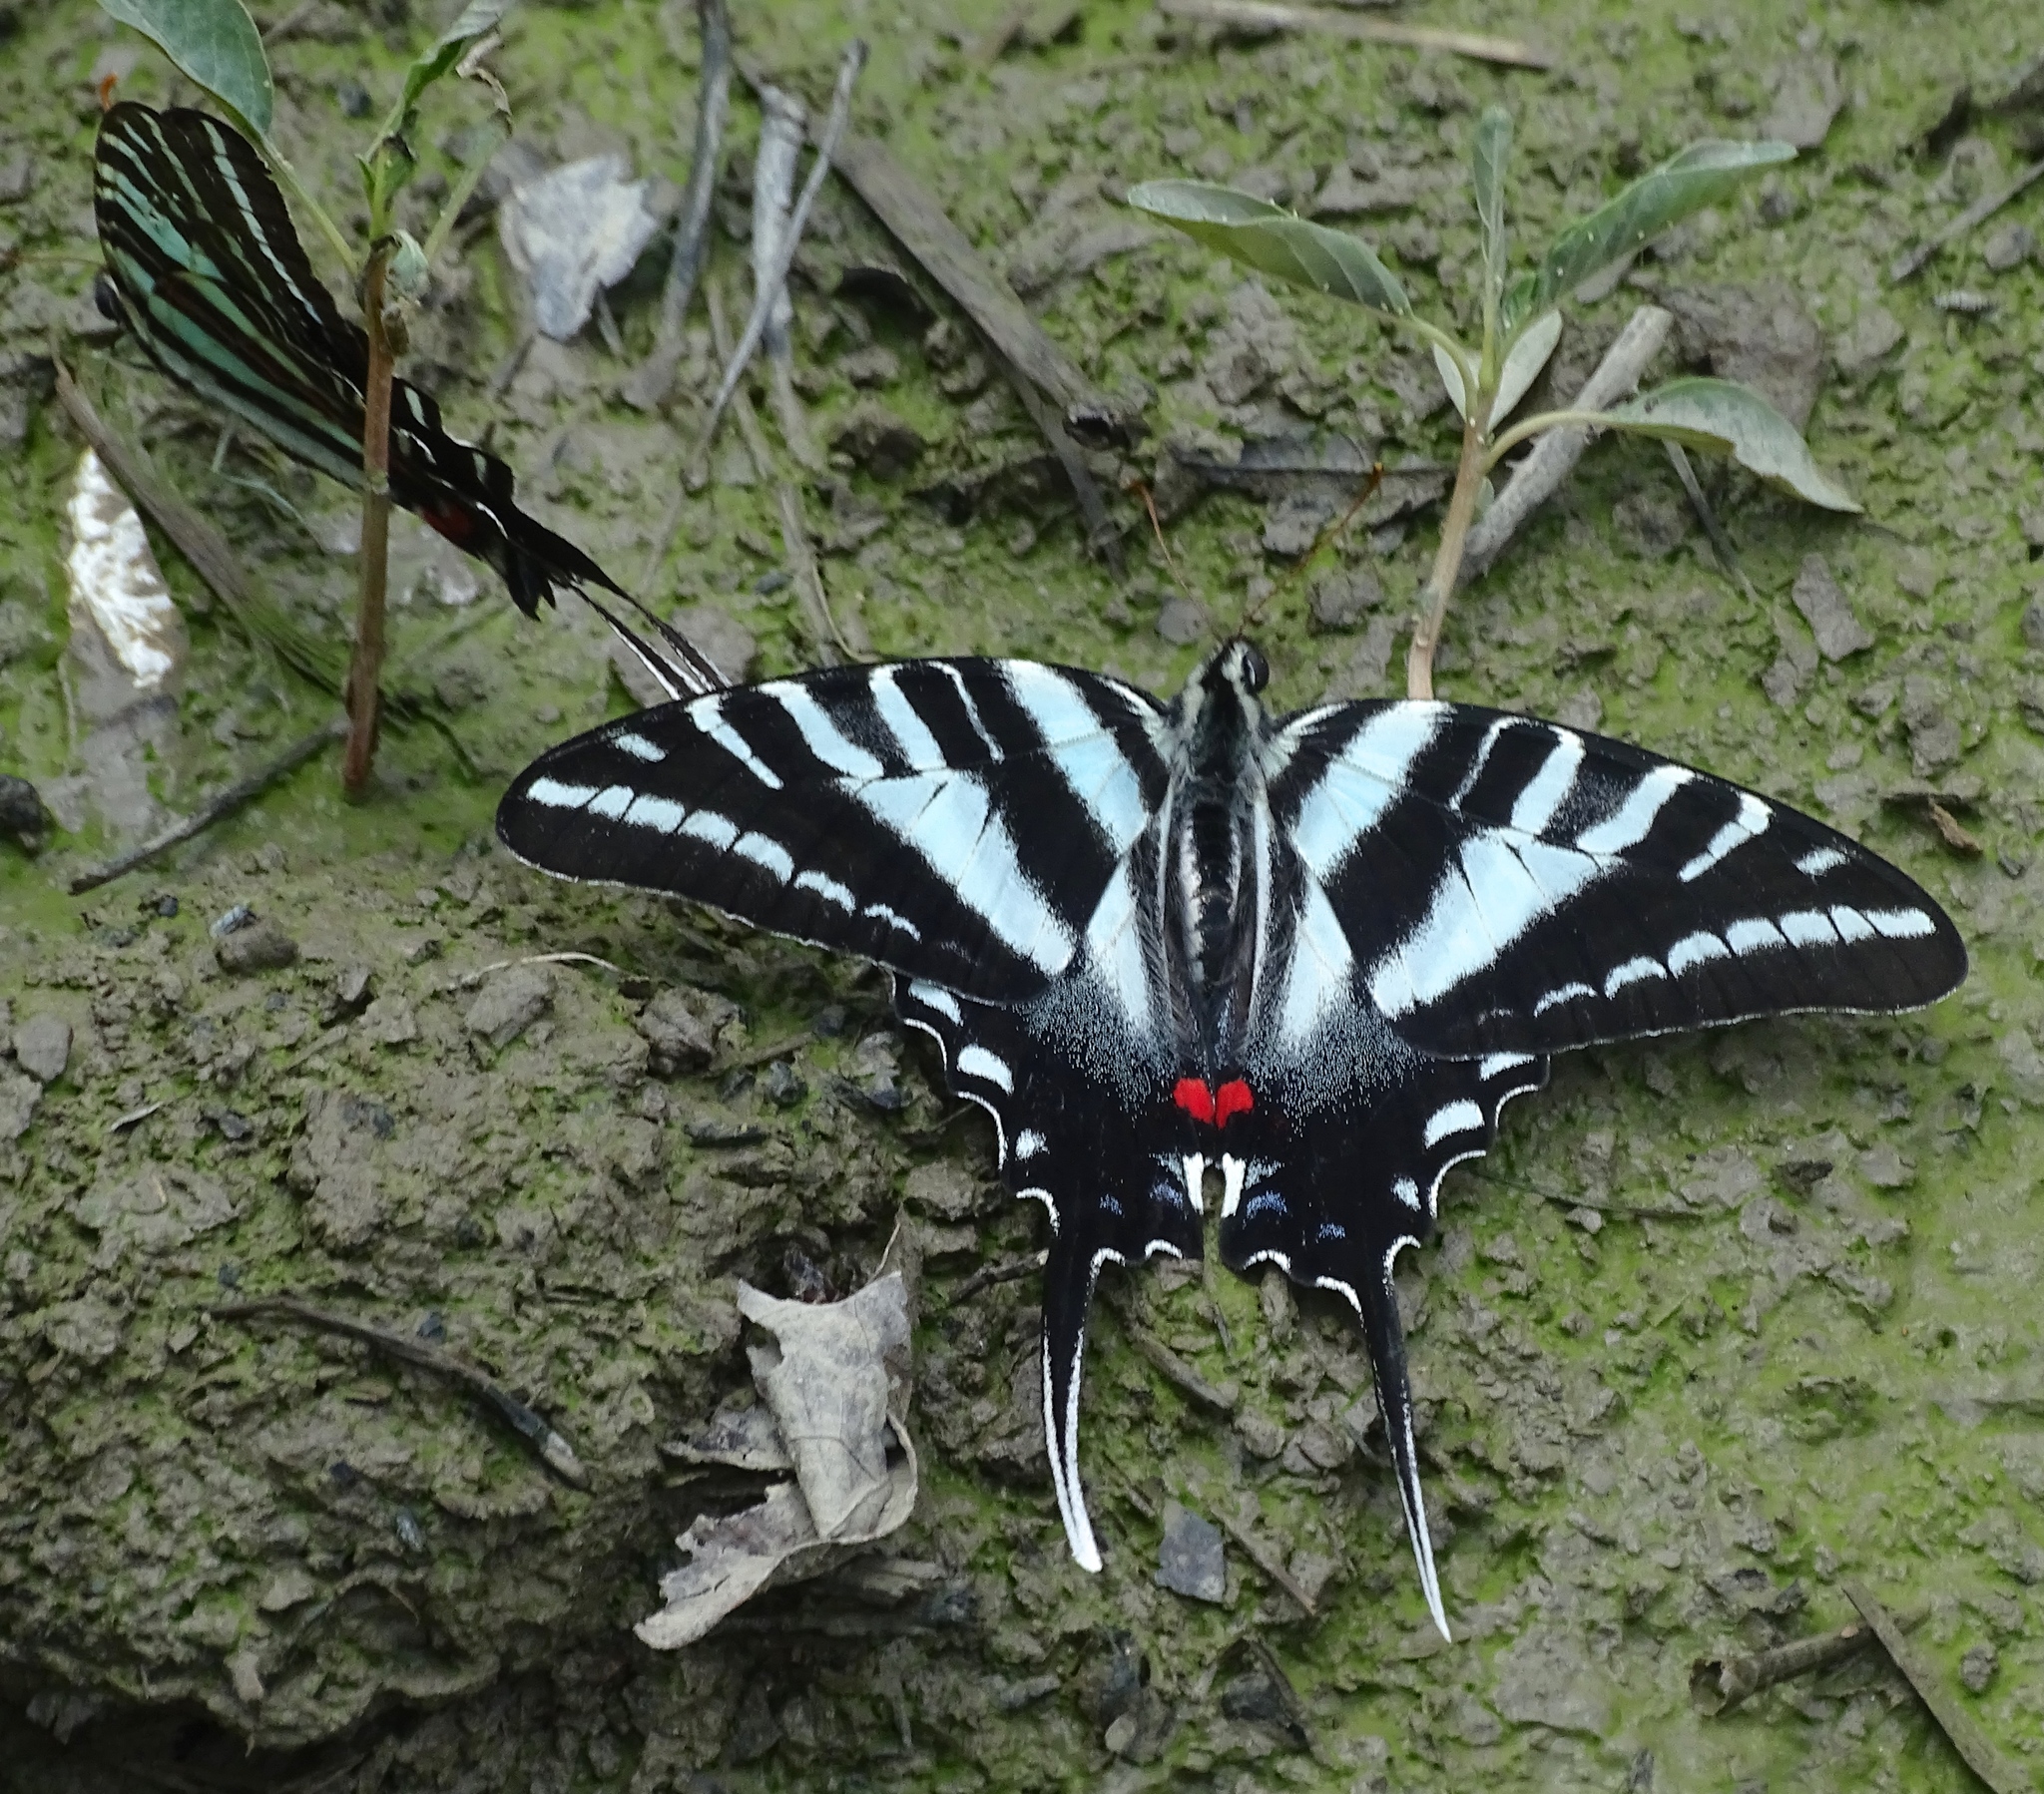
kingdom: Animalia
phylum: Arthropoda
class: Insecta
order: Lepidoptera
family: Papilionidae
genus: Protographium
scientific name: Protographium marcellus
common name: Zebra swallowtail
